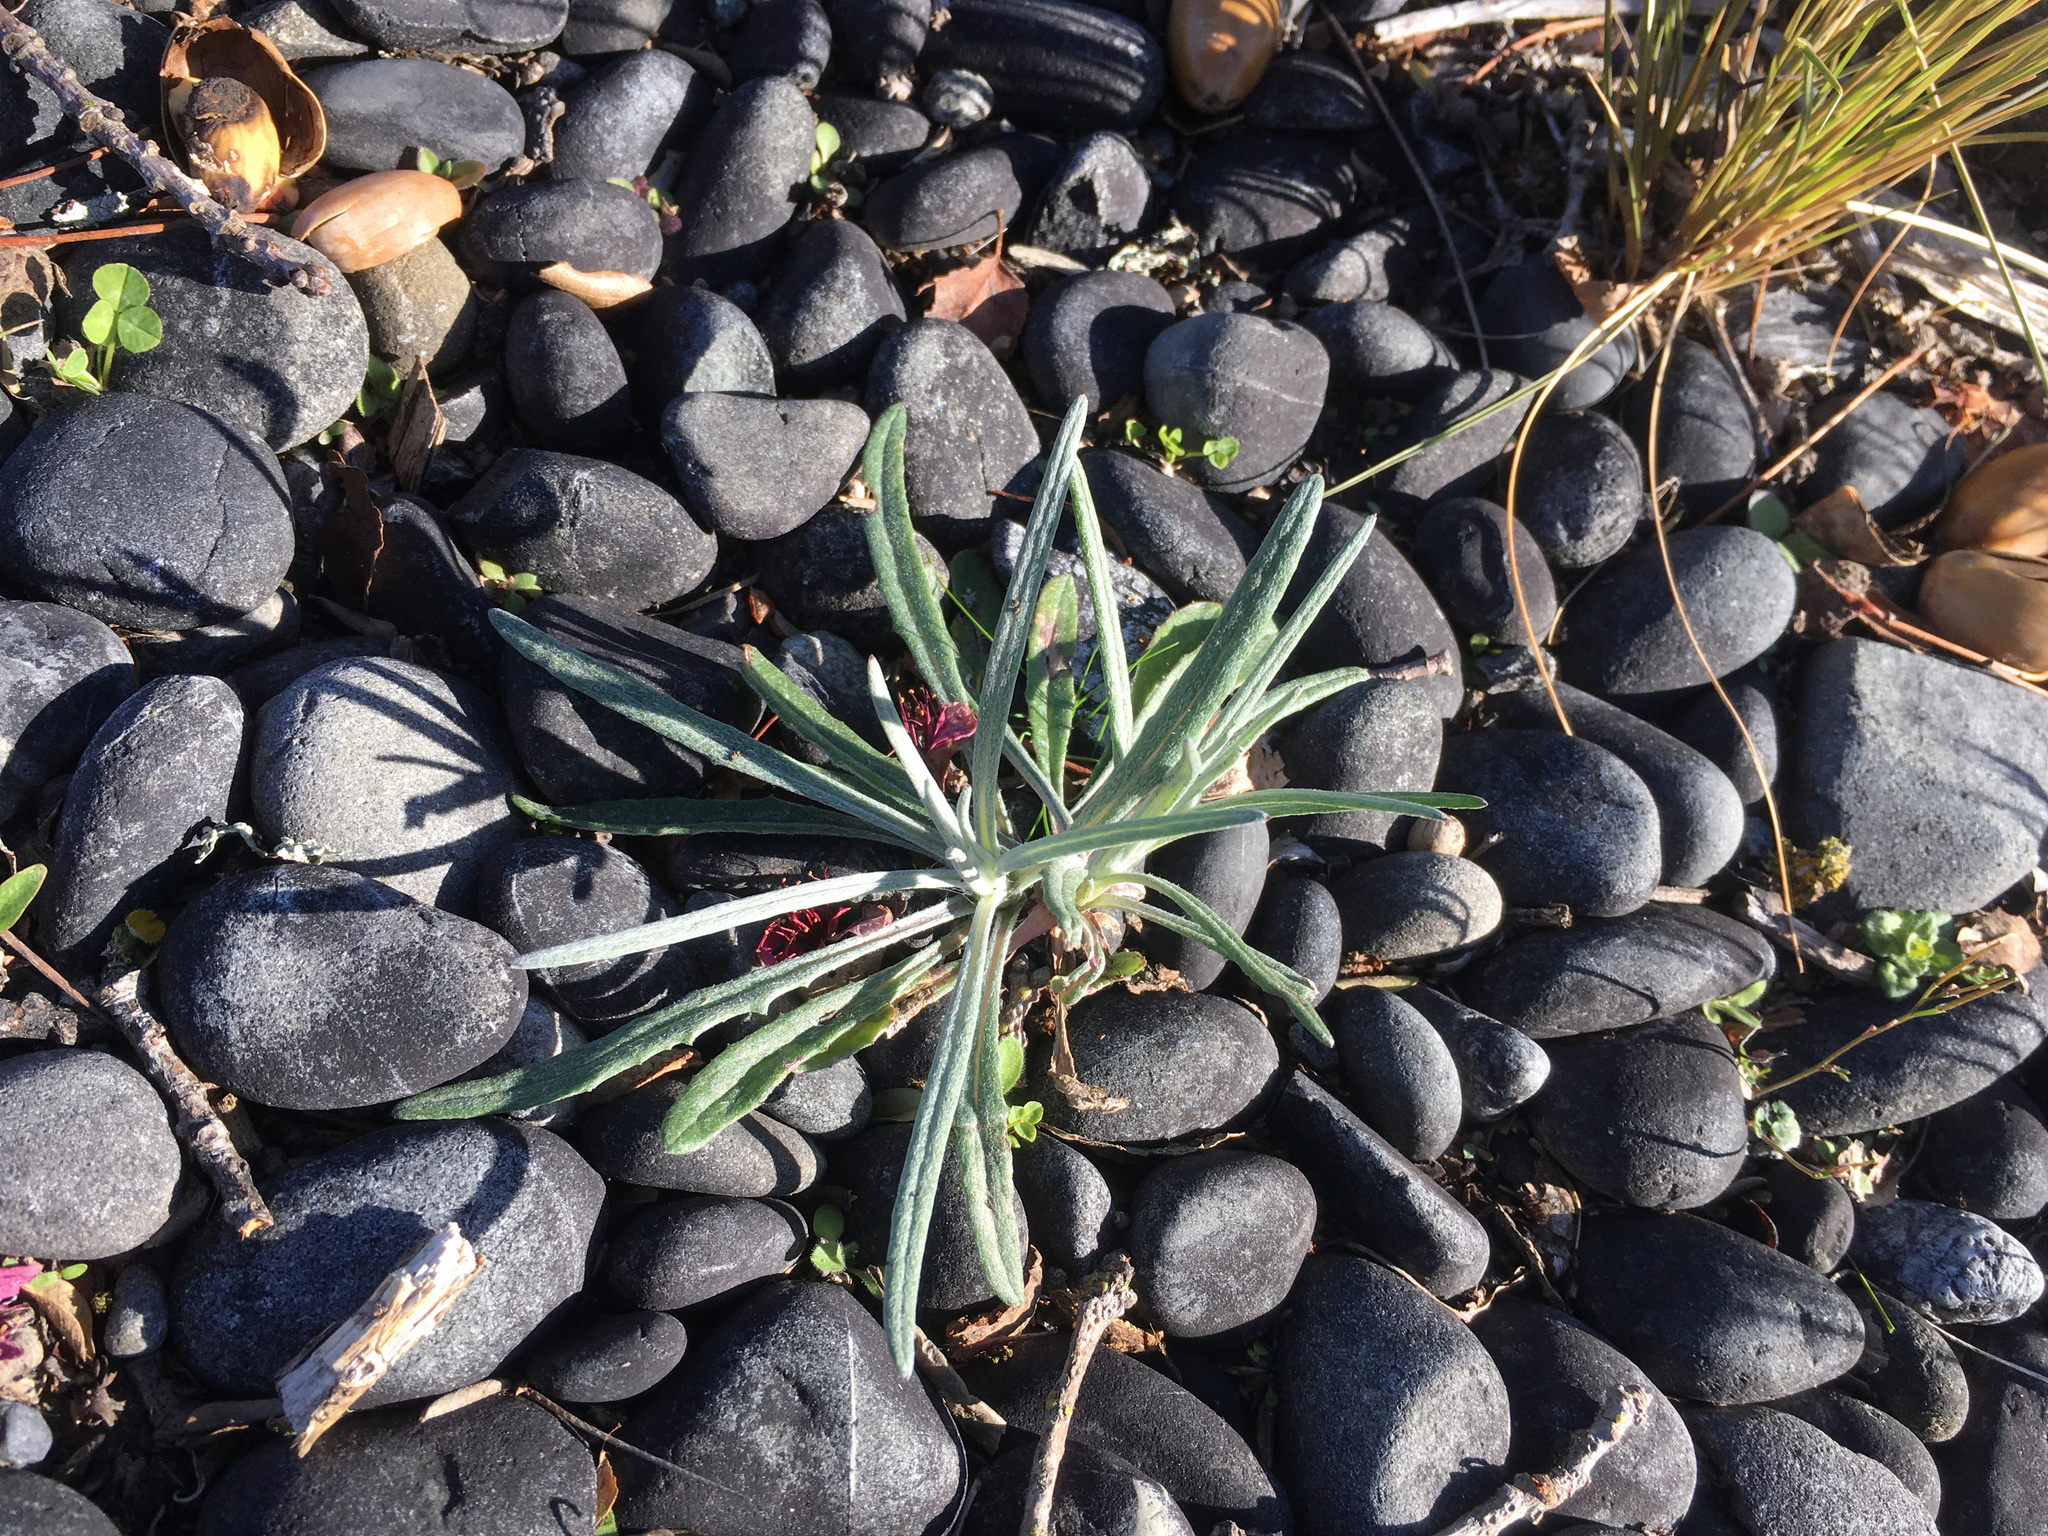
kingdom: Plantae
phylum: Tracheophyta
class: Magnoliopsida
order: Asterales
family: Asteraceae
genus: Senecio
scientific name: Senecio quadridentatus
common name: Cotton fireweed
